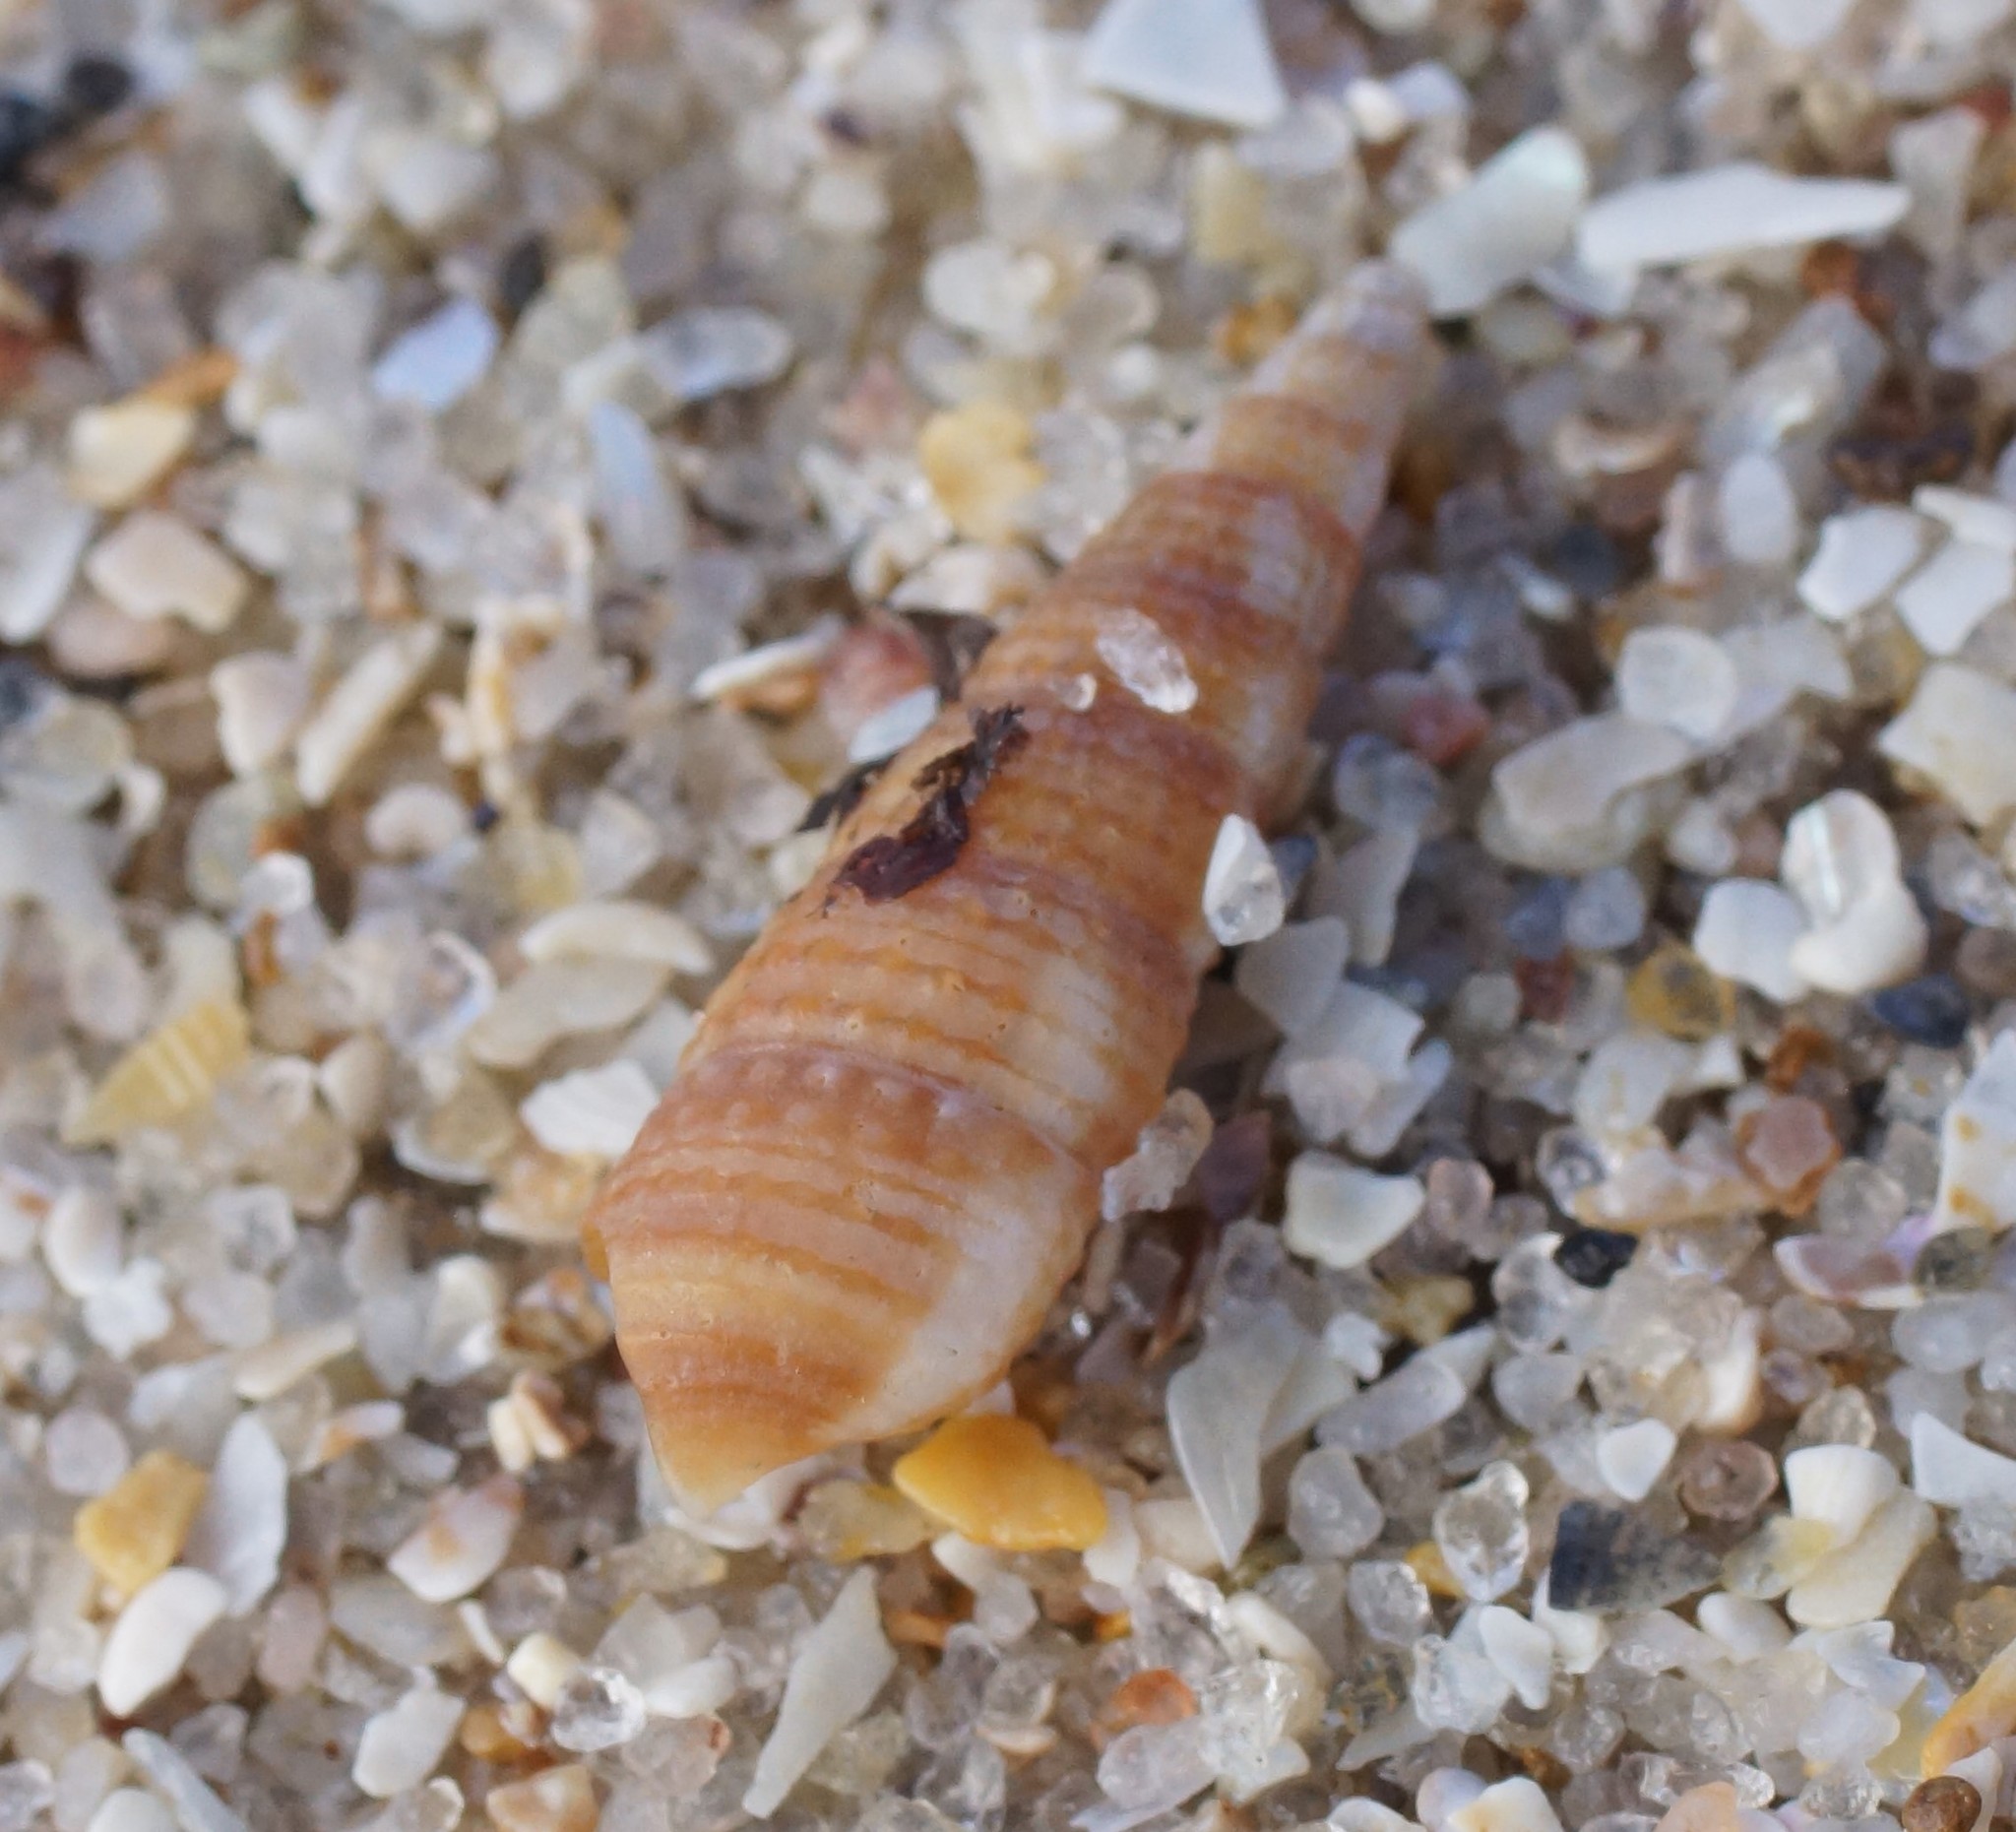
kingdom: Animalia
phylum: Mollusca
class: Gastropoda
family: Cerithiidae
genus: Cacozeliana
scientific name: Cacozeliana granarium
